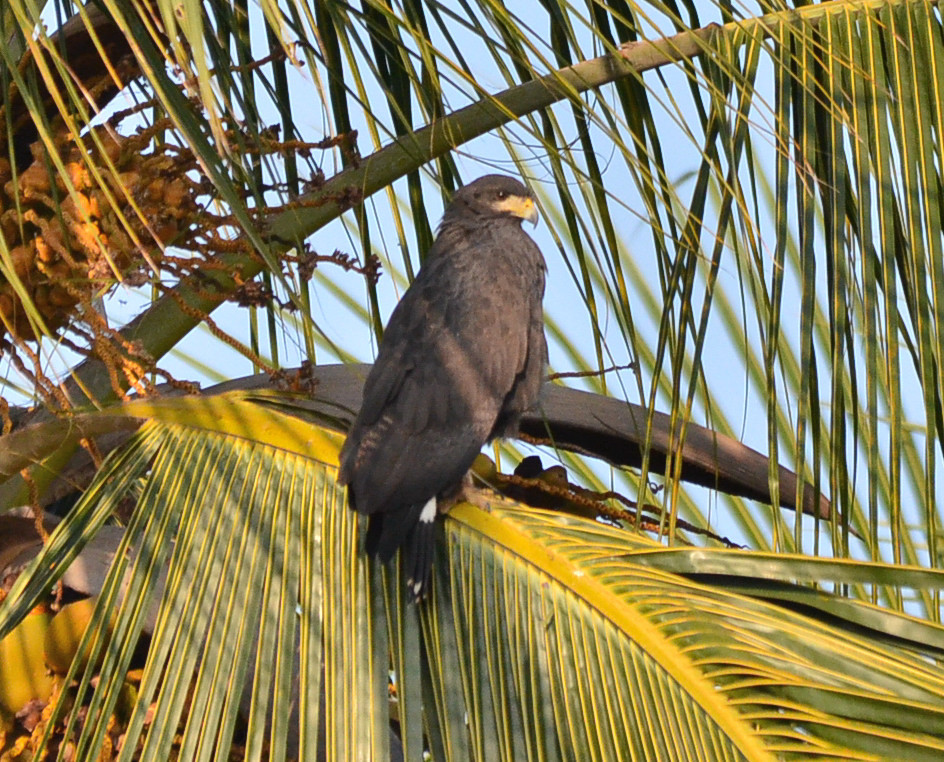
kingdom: Animalia
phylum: Chordata
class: Aves
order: Accipitriformes
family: Accipitridae
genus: Buteogallus
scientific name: Buteogallus anthracinus
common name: Common black hawk
